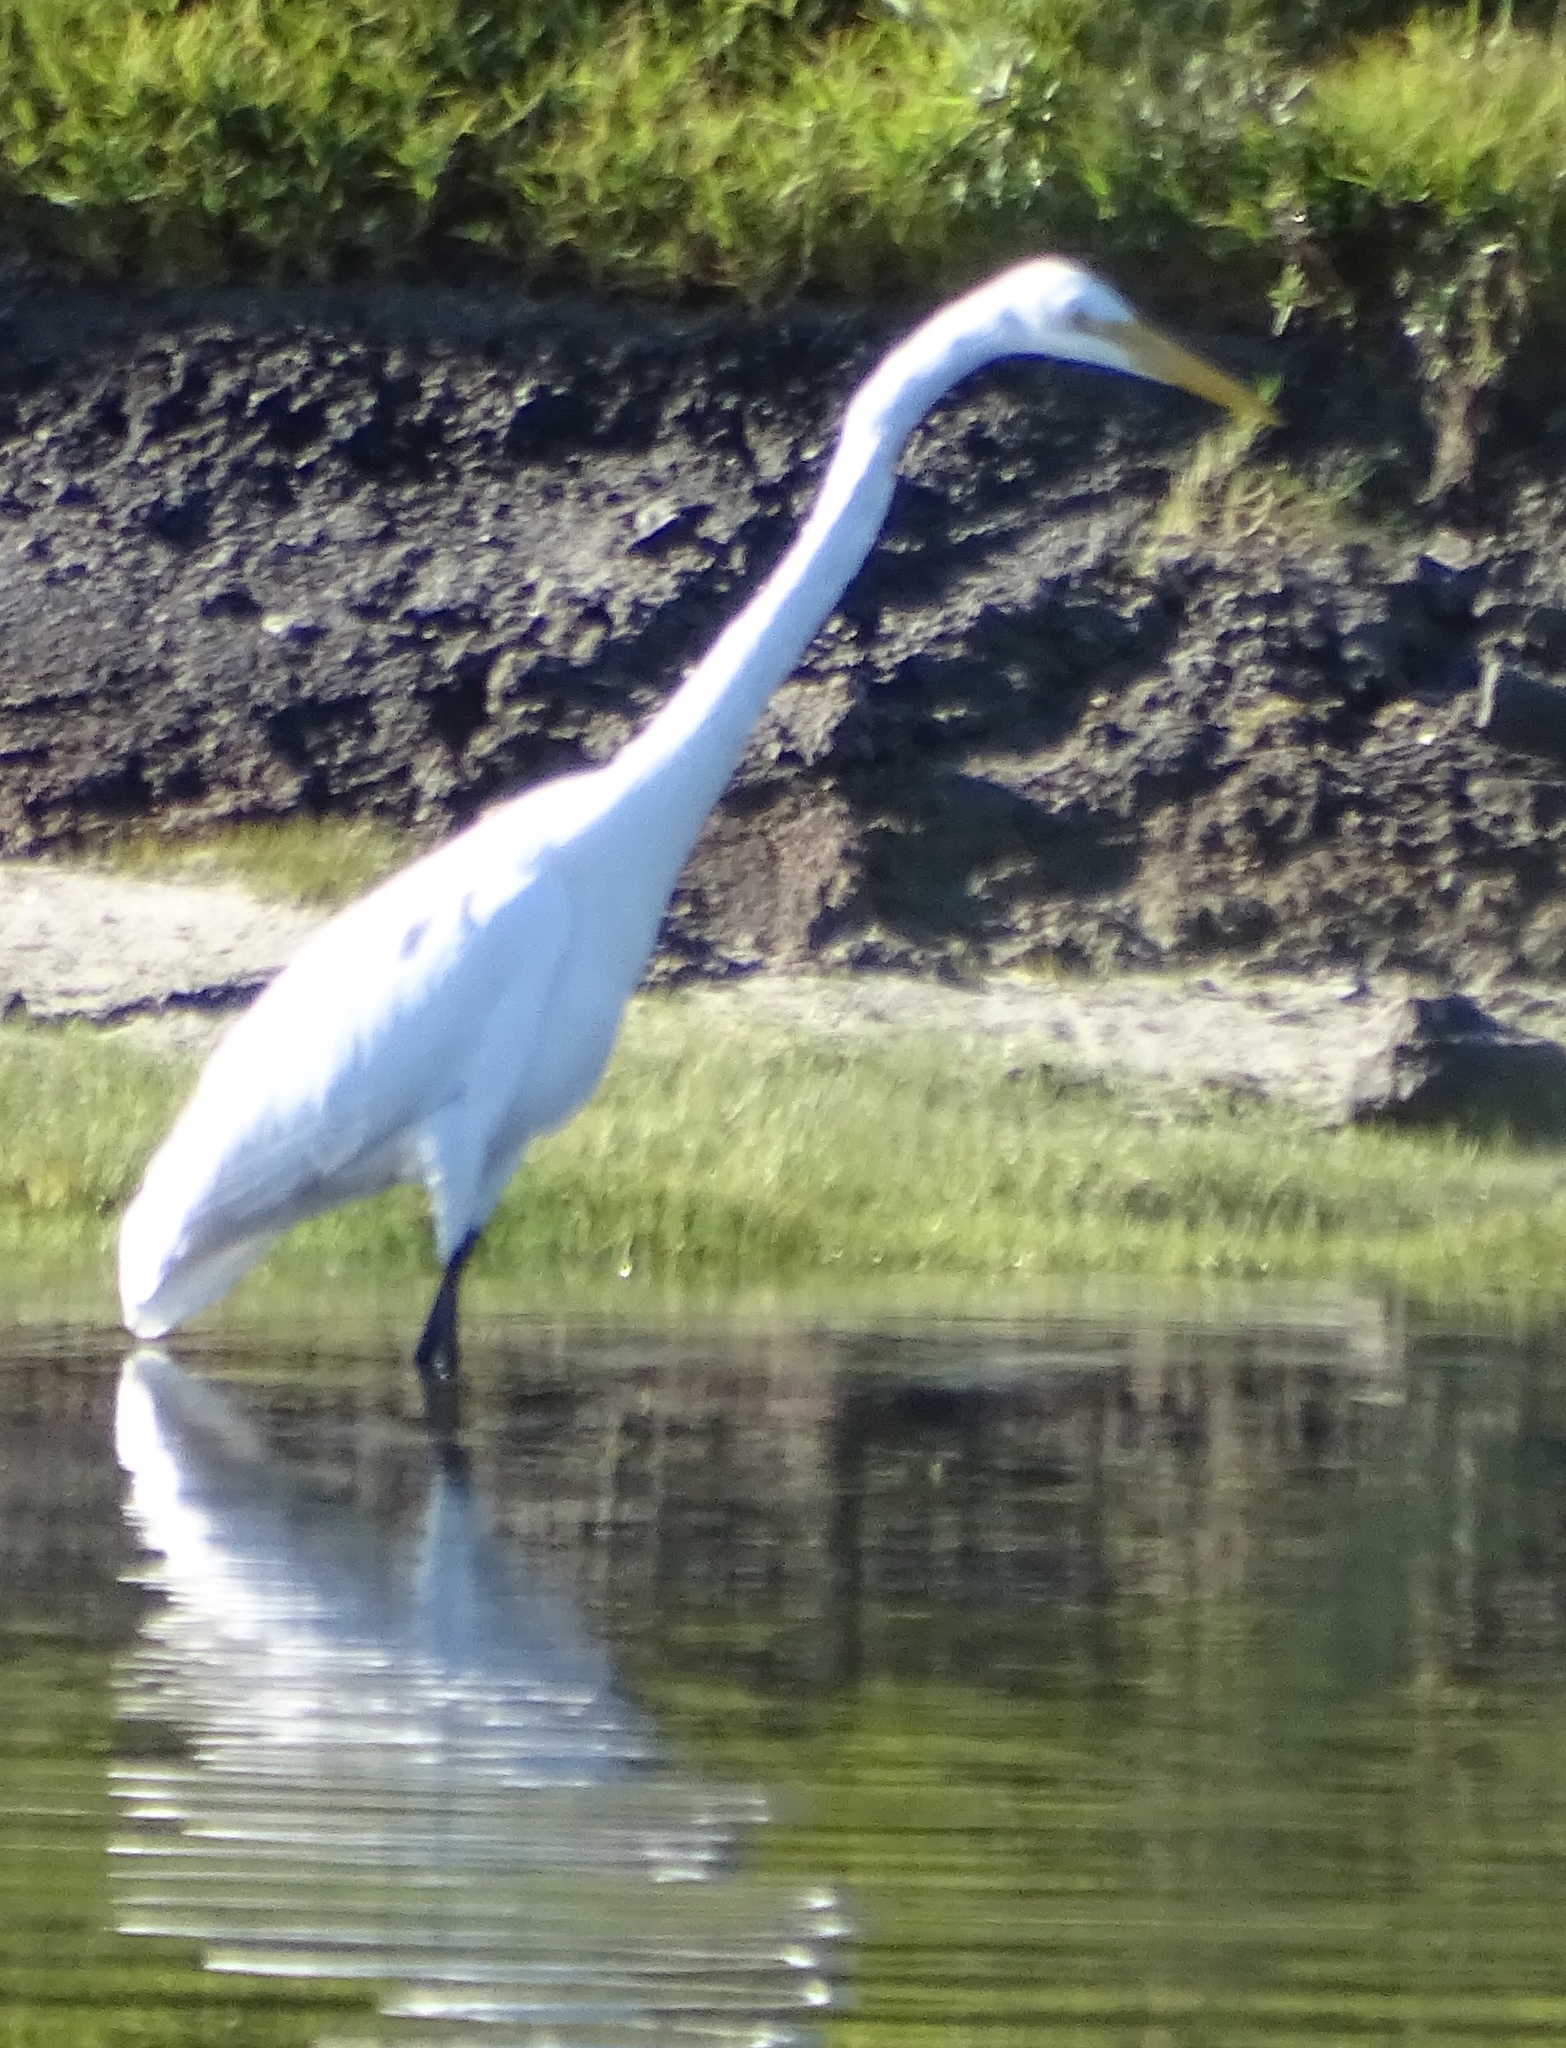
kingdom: Animalia
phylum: Chordata
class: Aves
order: Pelecaniformes
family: Ardeidae
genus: Ardea
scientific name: Ardea alba
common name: Great egret
